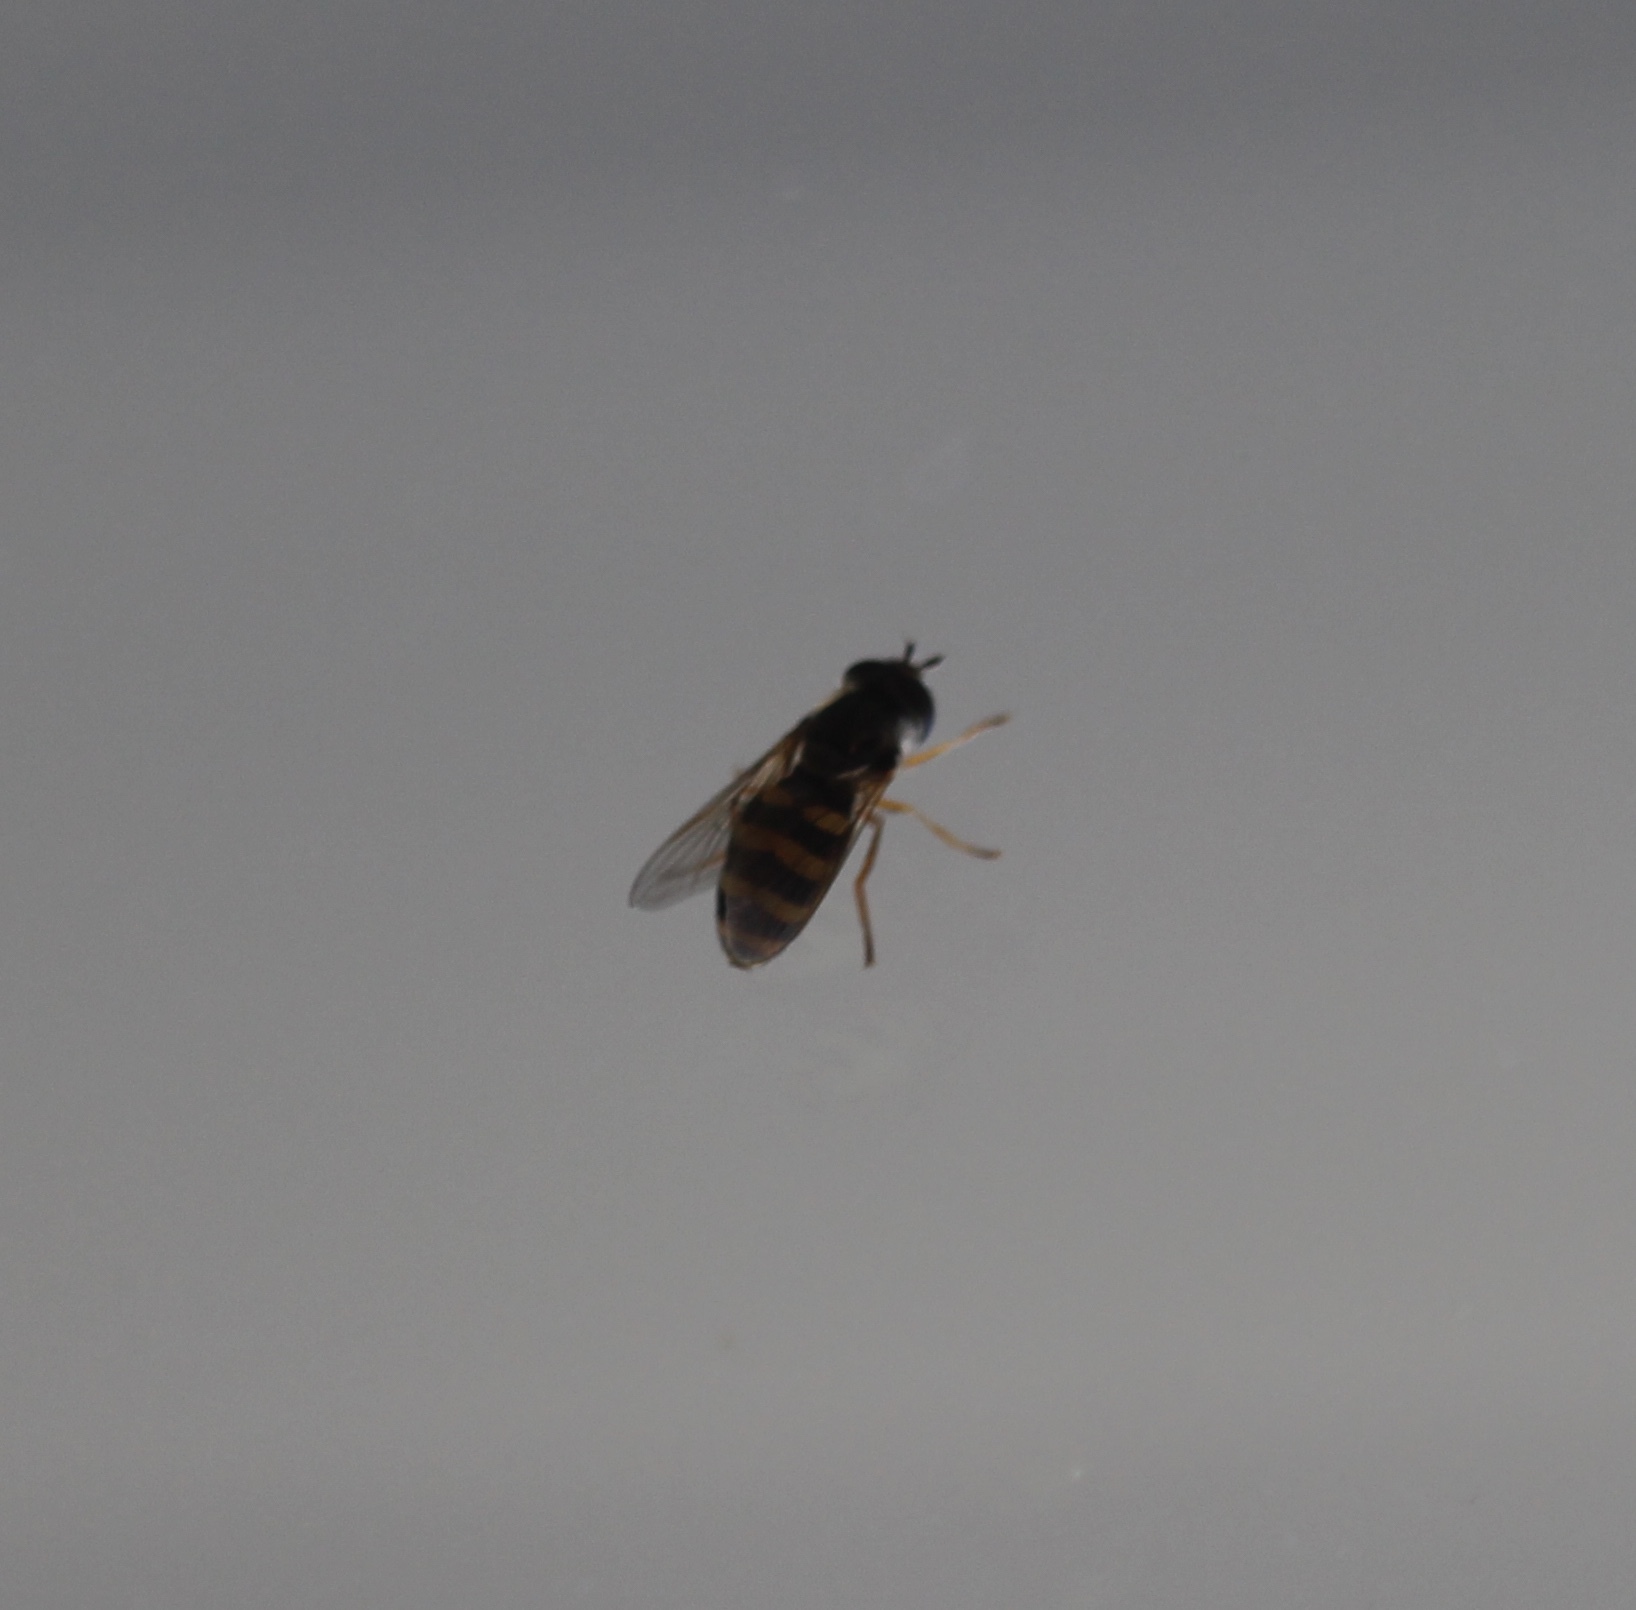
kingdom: Animalia
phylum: Arthropoda
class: Insecta
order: Diptera
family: Syrphidae
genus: Eupeodes
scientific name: Eupeodes fumipennis
